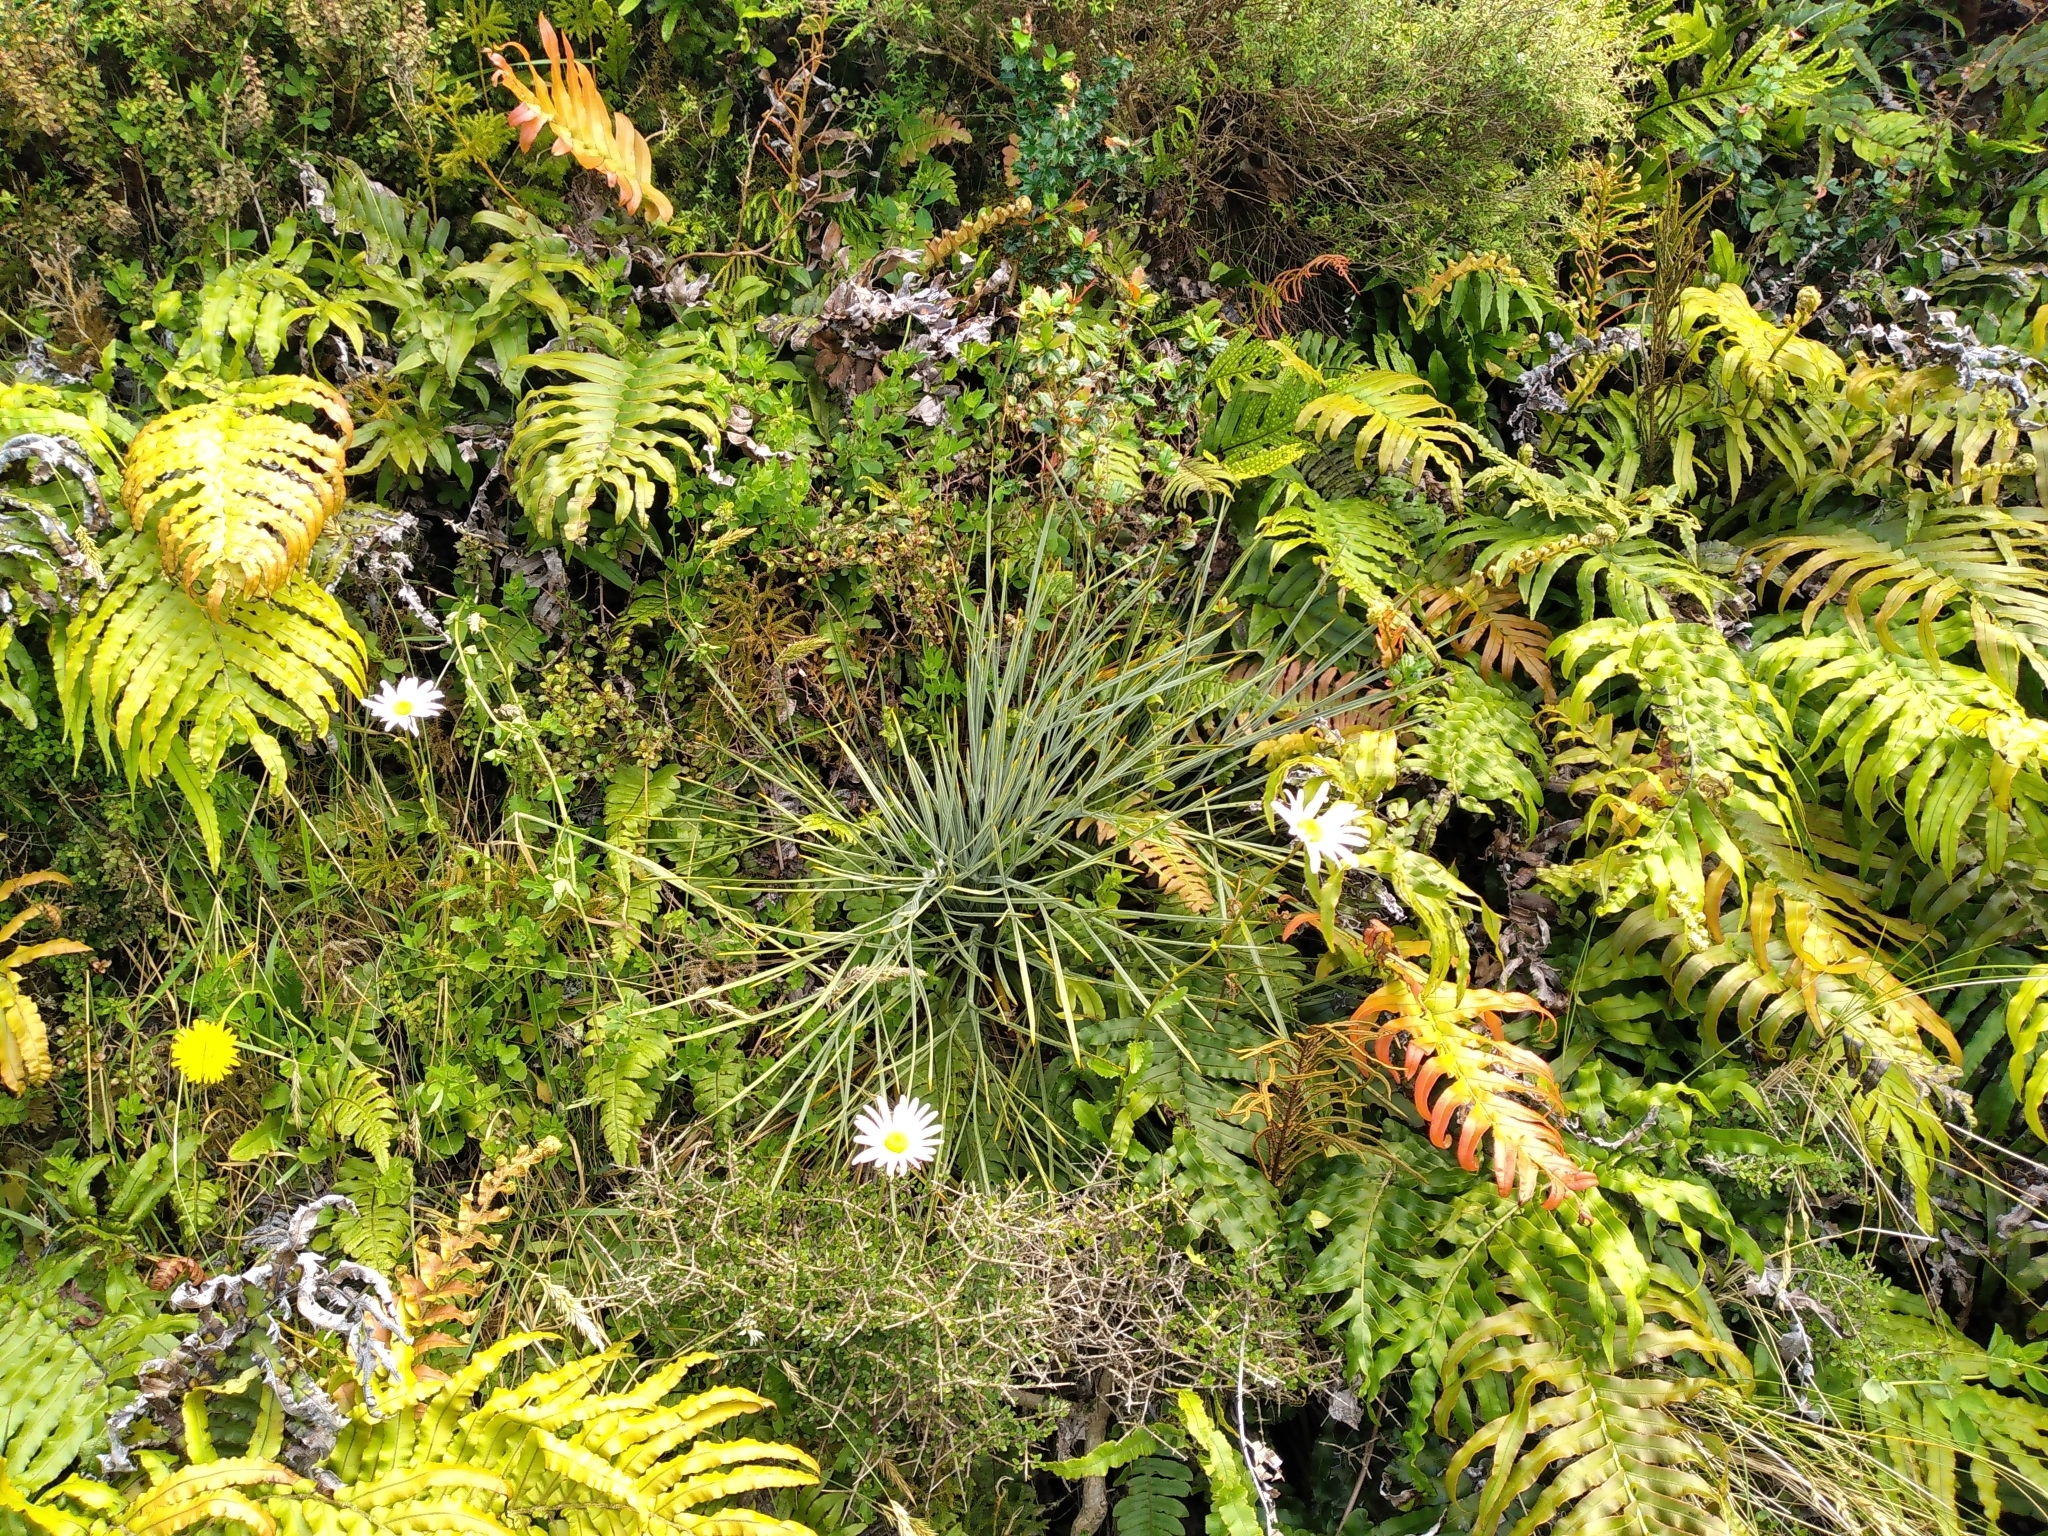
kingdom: Plantae
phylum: Tracheophyta
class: Magnoliopsida
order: Apiales
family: Apiaceae
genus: Aciphylla
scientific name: Aciphylla squarrosa
